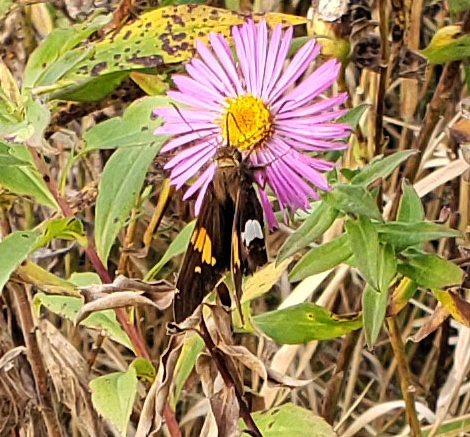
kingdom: Animalia
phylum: Arthropoda
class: Insecta
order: Lepidoptera
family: Hesperiidae
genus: Epargyreus
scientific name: Epargyreus clarus
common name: Silver-spotted skipper
